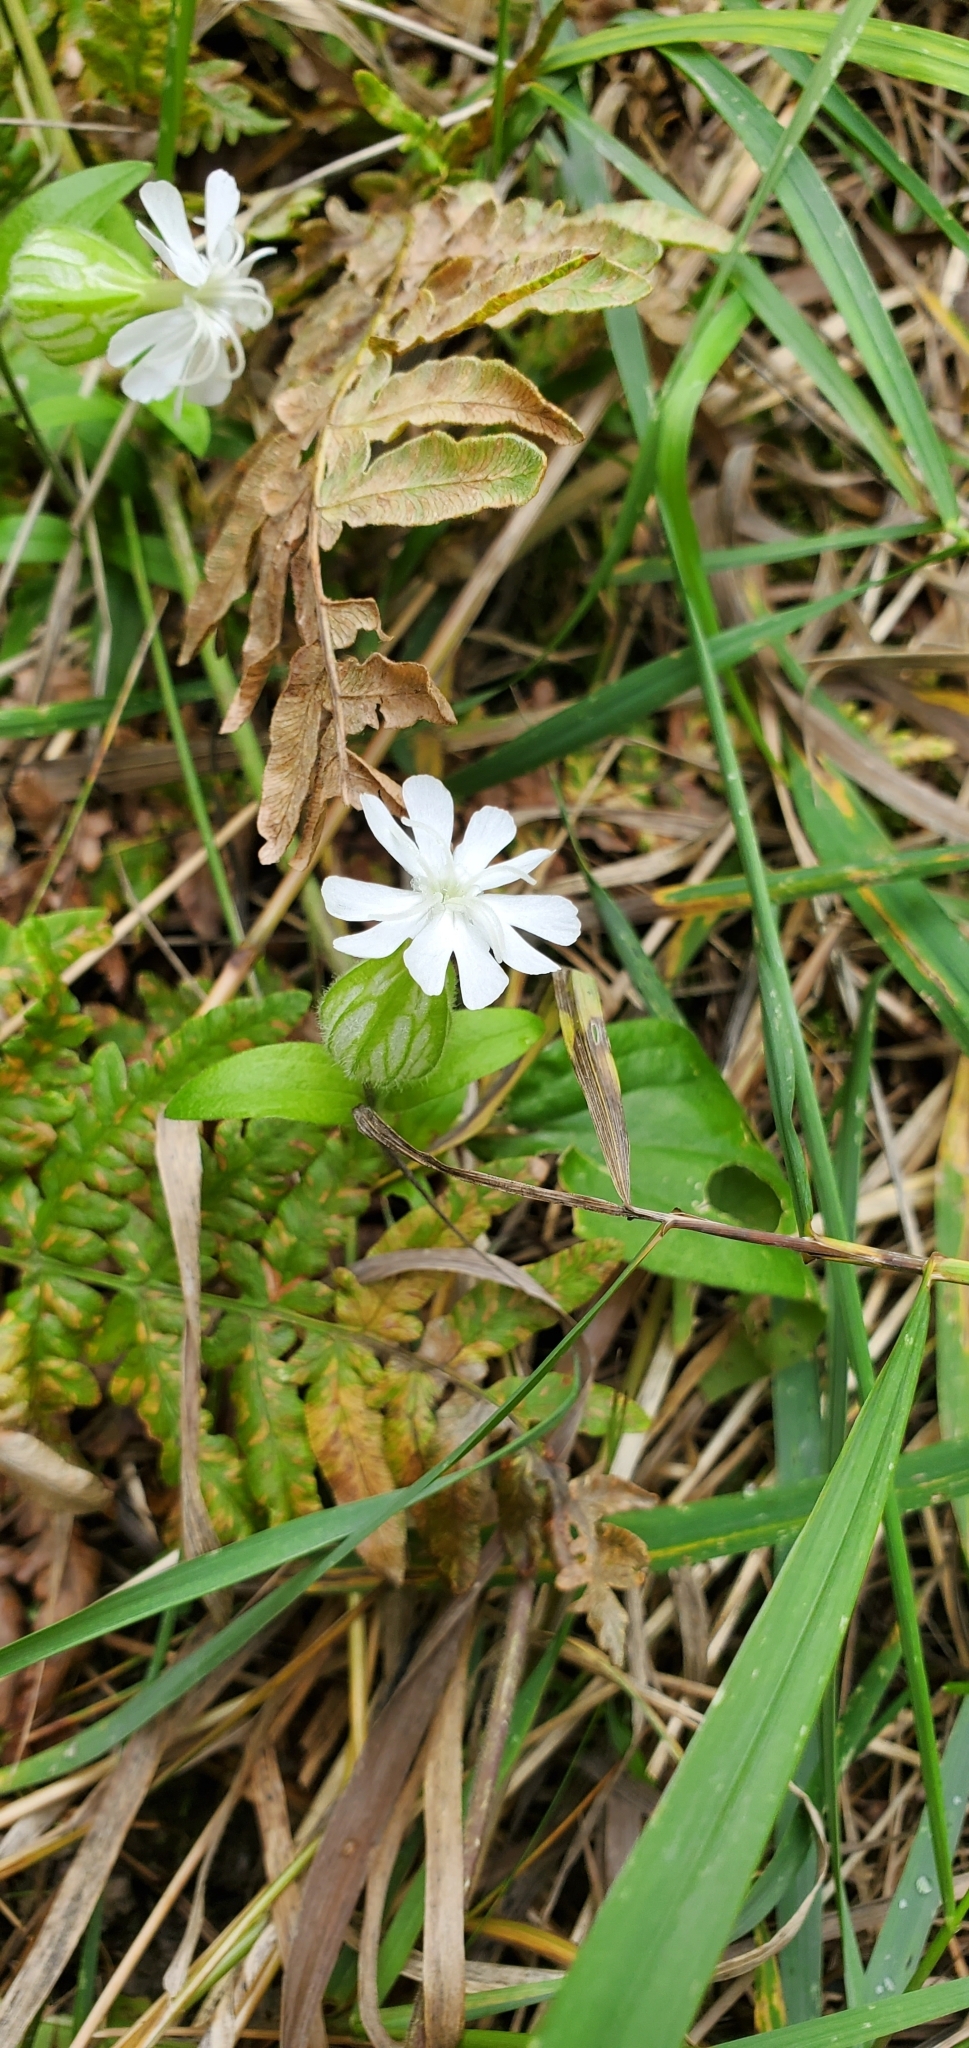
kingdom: Plantae
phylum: Tracheophyta
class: Magnoliopsida
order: Caryophyllales
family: Caryophyllaceae
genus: Silene
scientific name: Silene latifolia
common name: White campion
